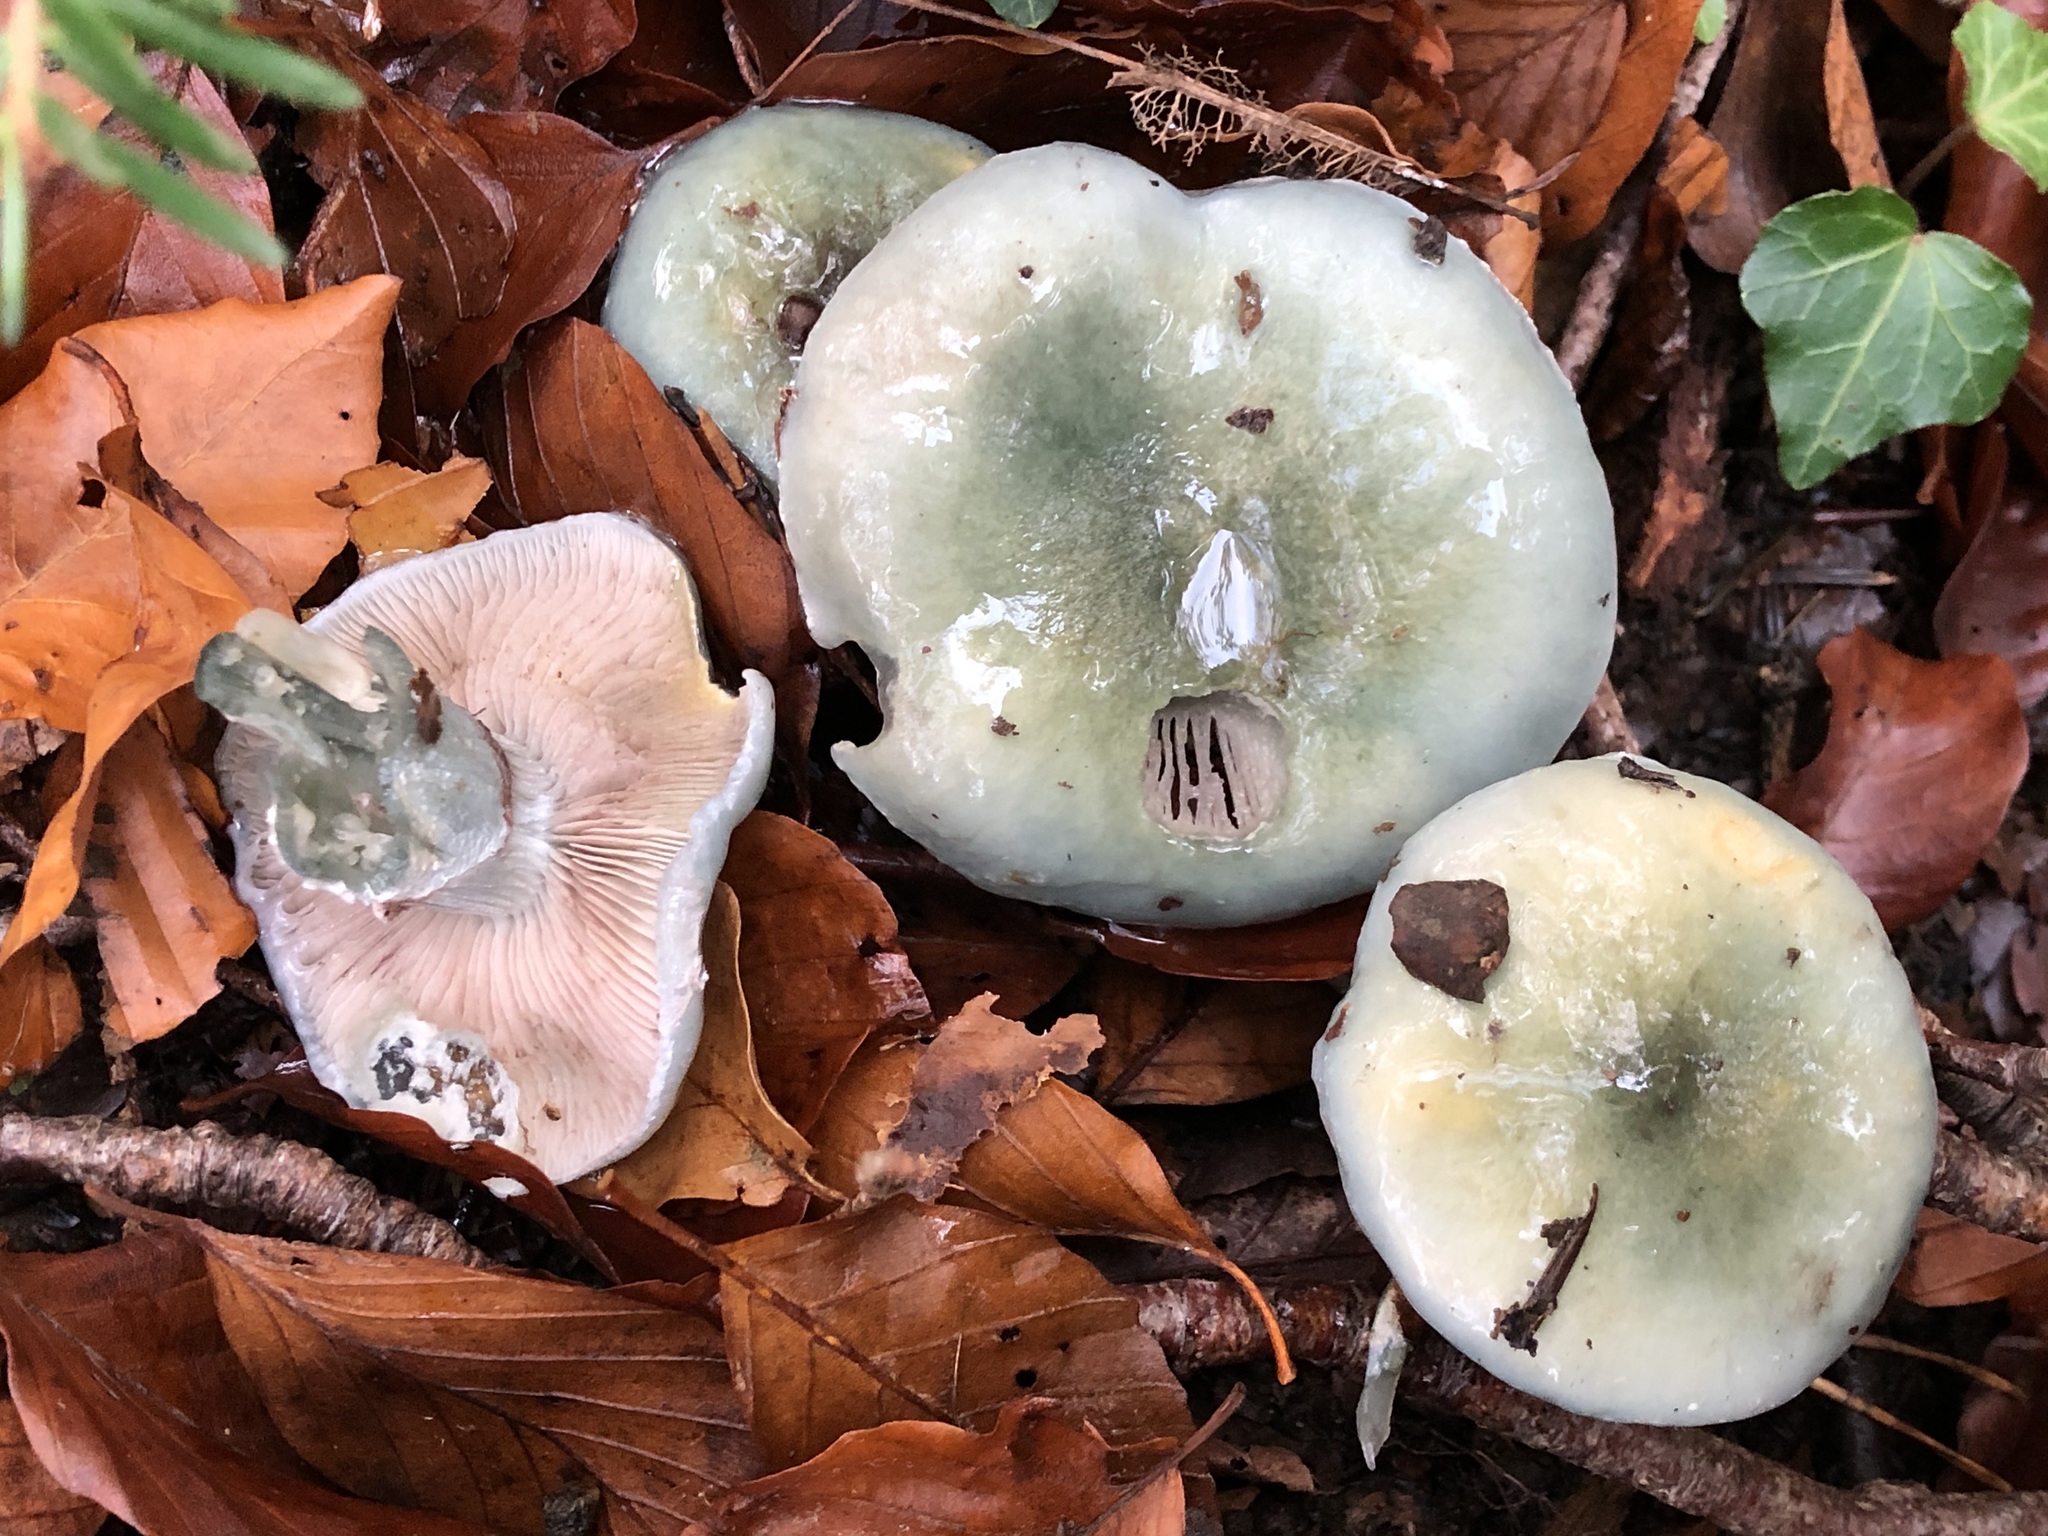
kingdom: Fungi
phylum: Basidiomycota
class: Agaricomycetes
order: Agaricales
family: Strophariaceae
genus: Stropharia
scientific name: Stropharia caerulea
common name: Blue roundhead
